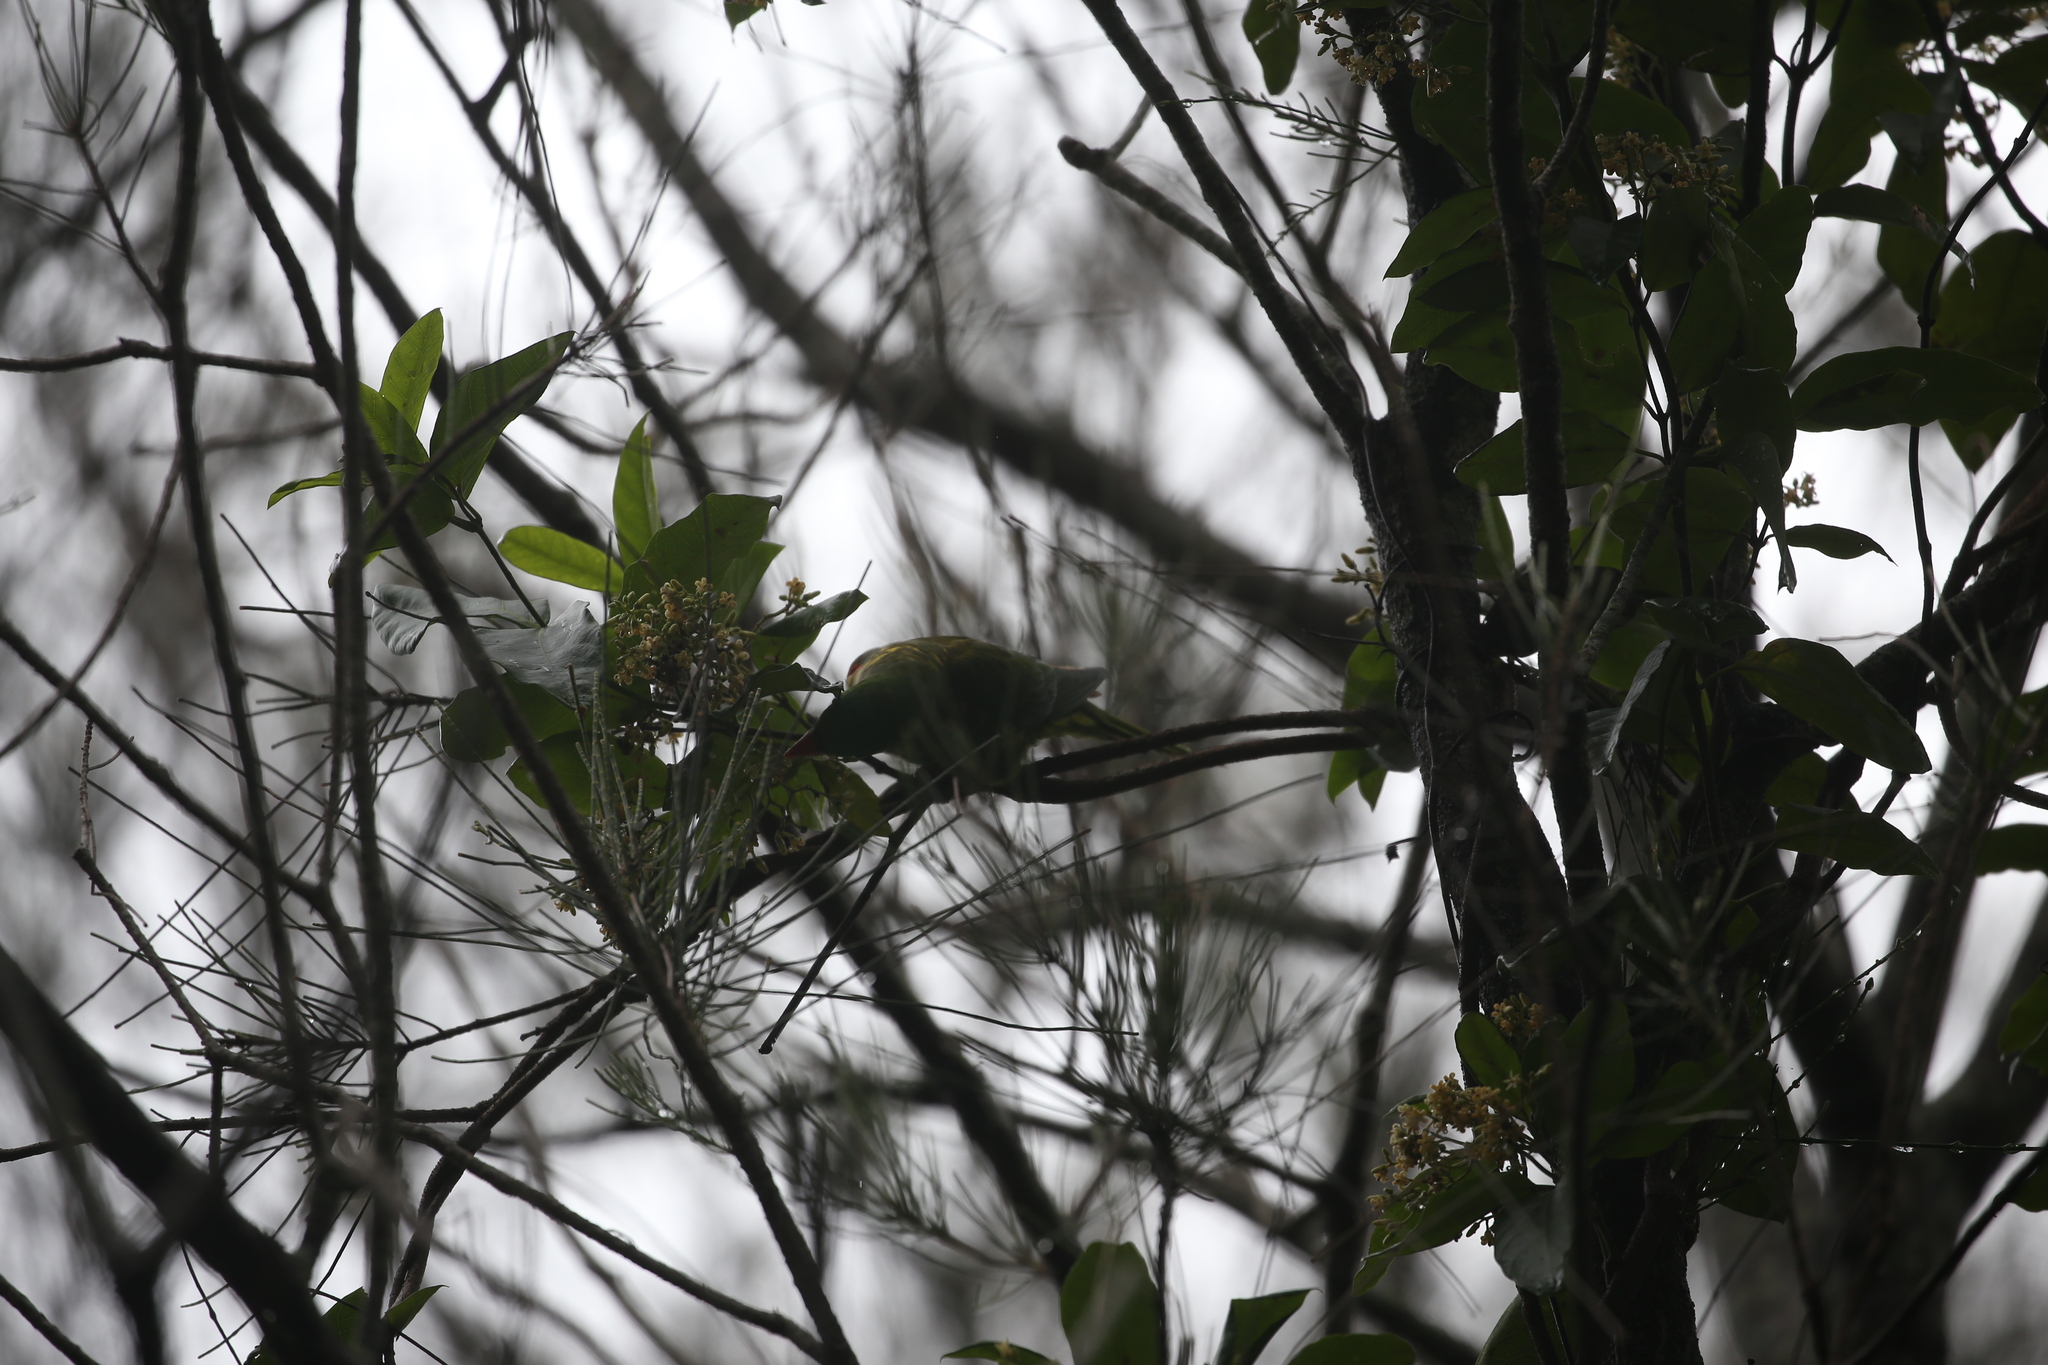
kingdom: Animalia
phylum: Chordata
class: Aves
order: Psittaciformes
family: Psittacidae
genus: Trichoglossus
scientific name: Trichoglossus chlorolepidotus
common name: Scaly-breasted lorikeet
